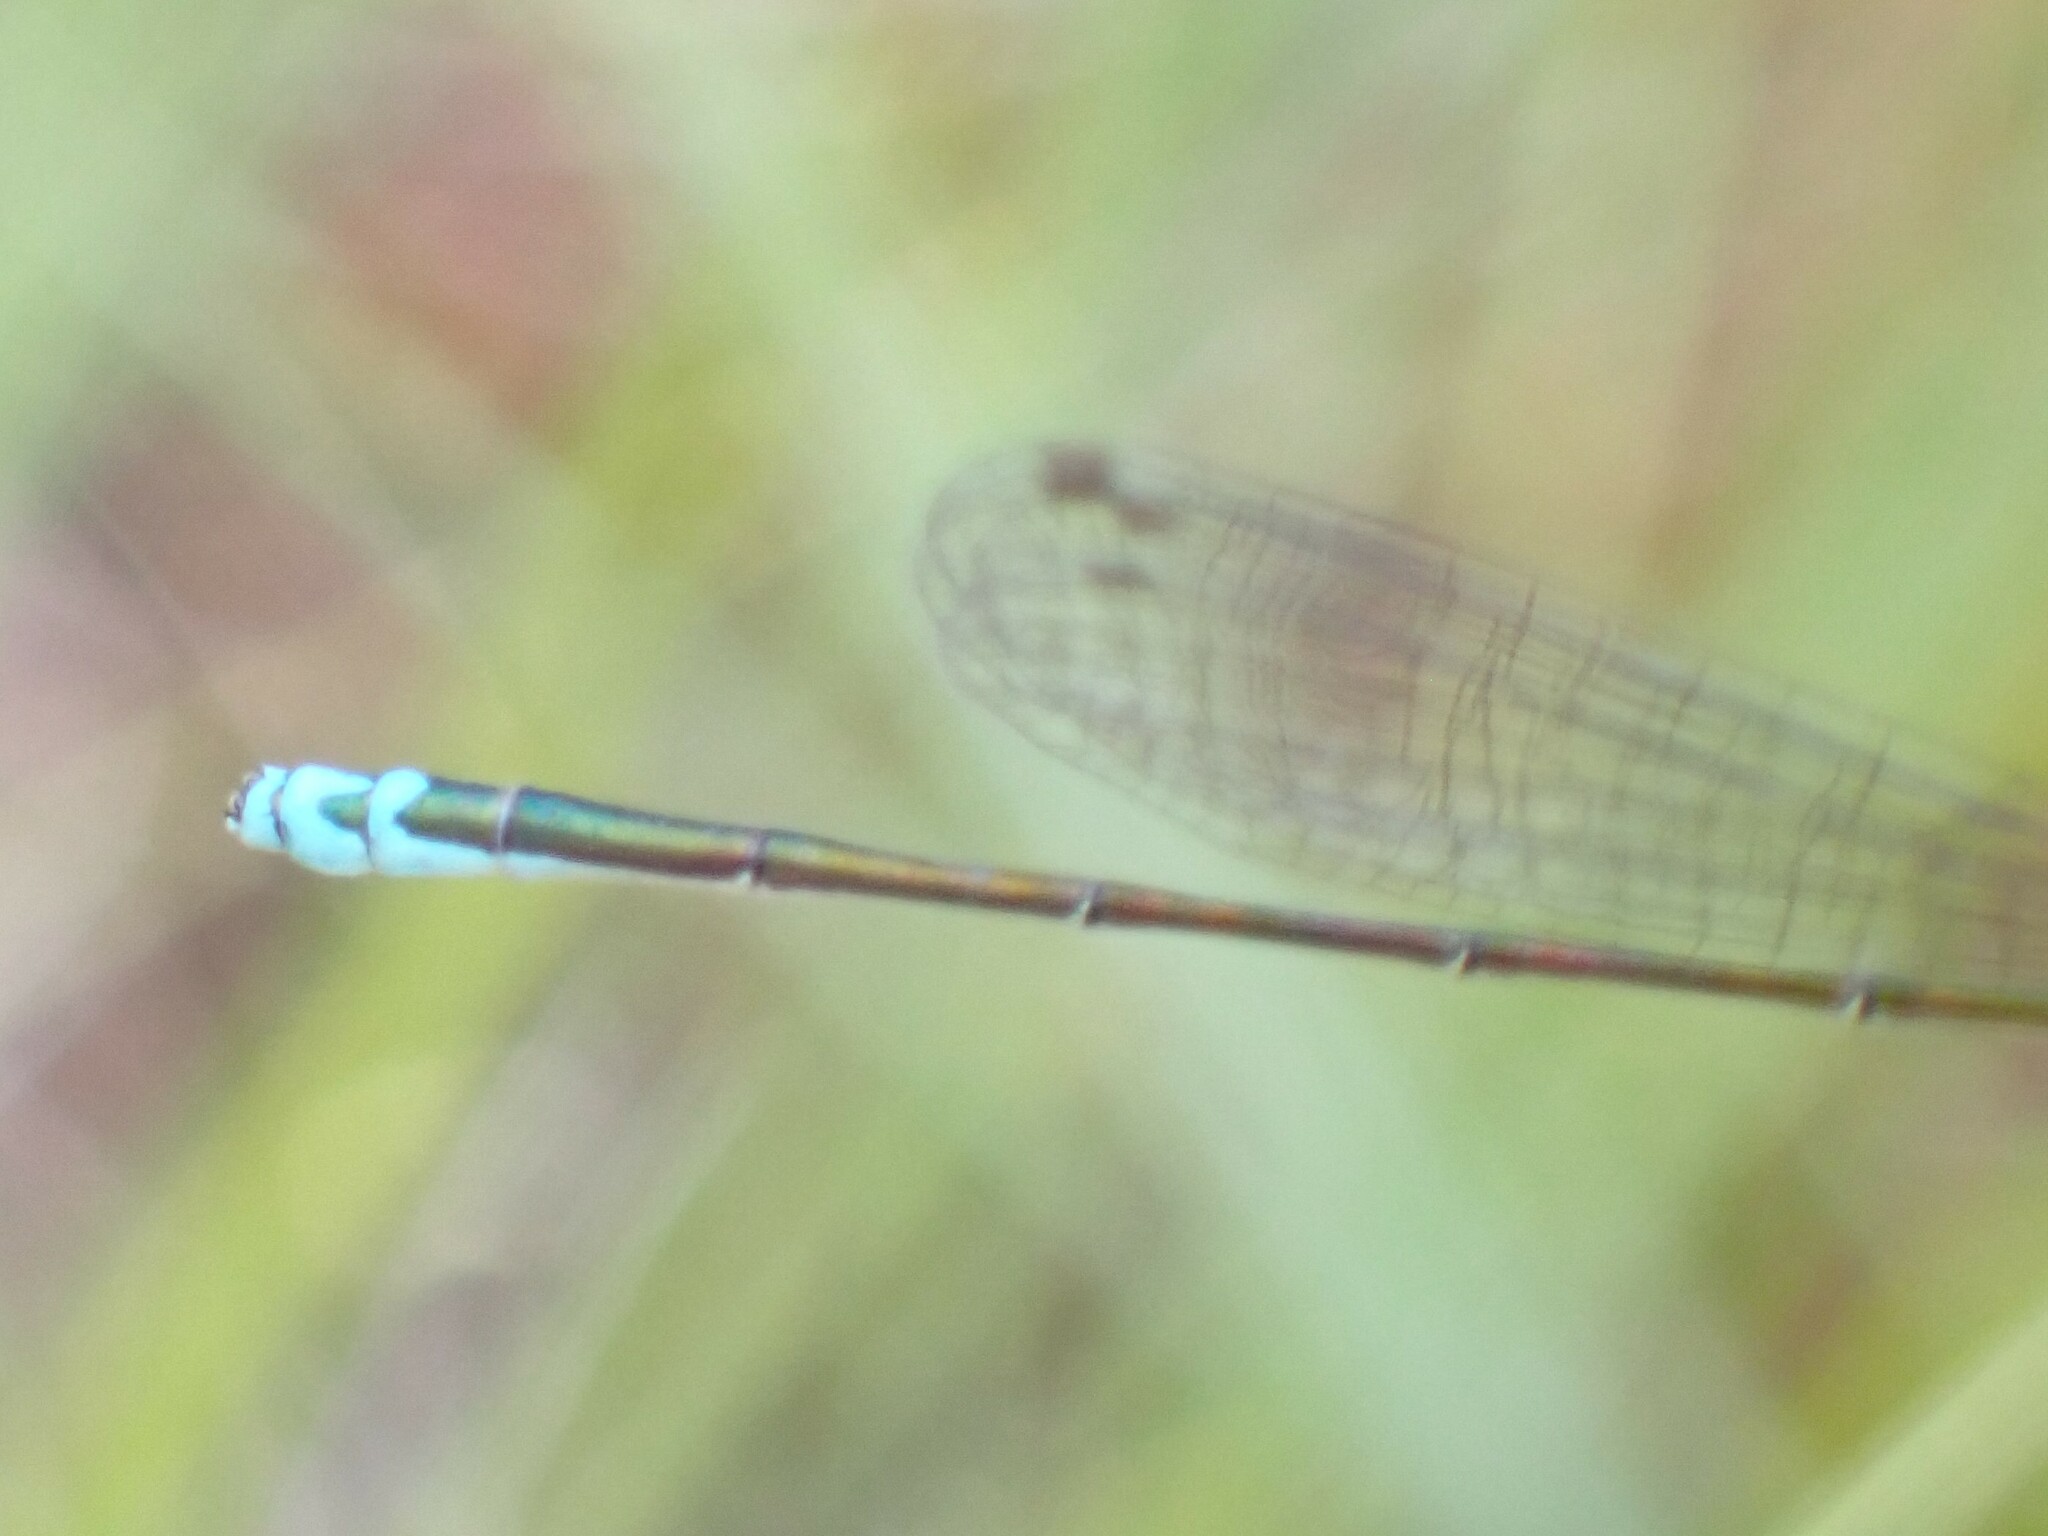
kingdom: Animalia
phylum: Arthropoda
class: Insecta
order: Odonata
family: Coenagrionidae
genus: Nehalennia
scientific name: Nehalennia irene
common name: Sedge sprite
